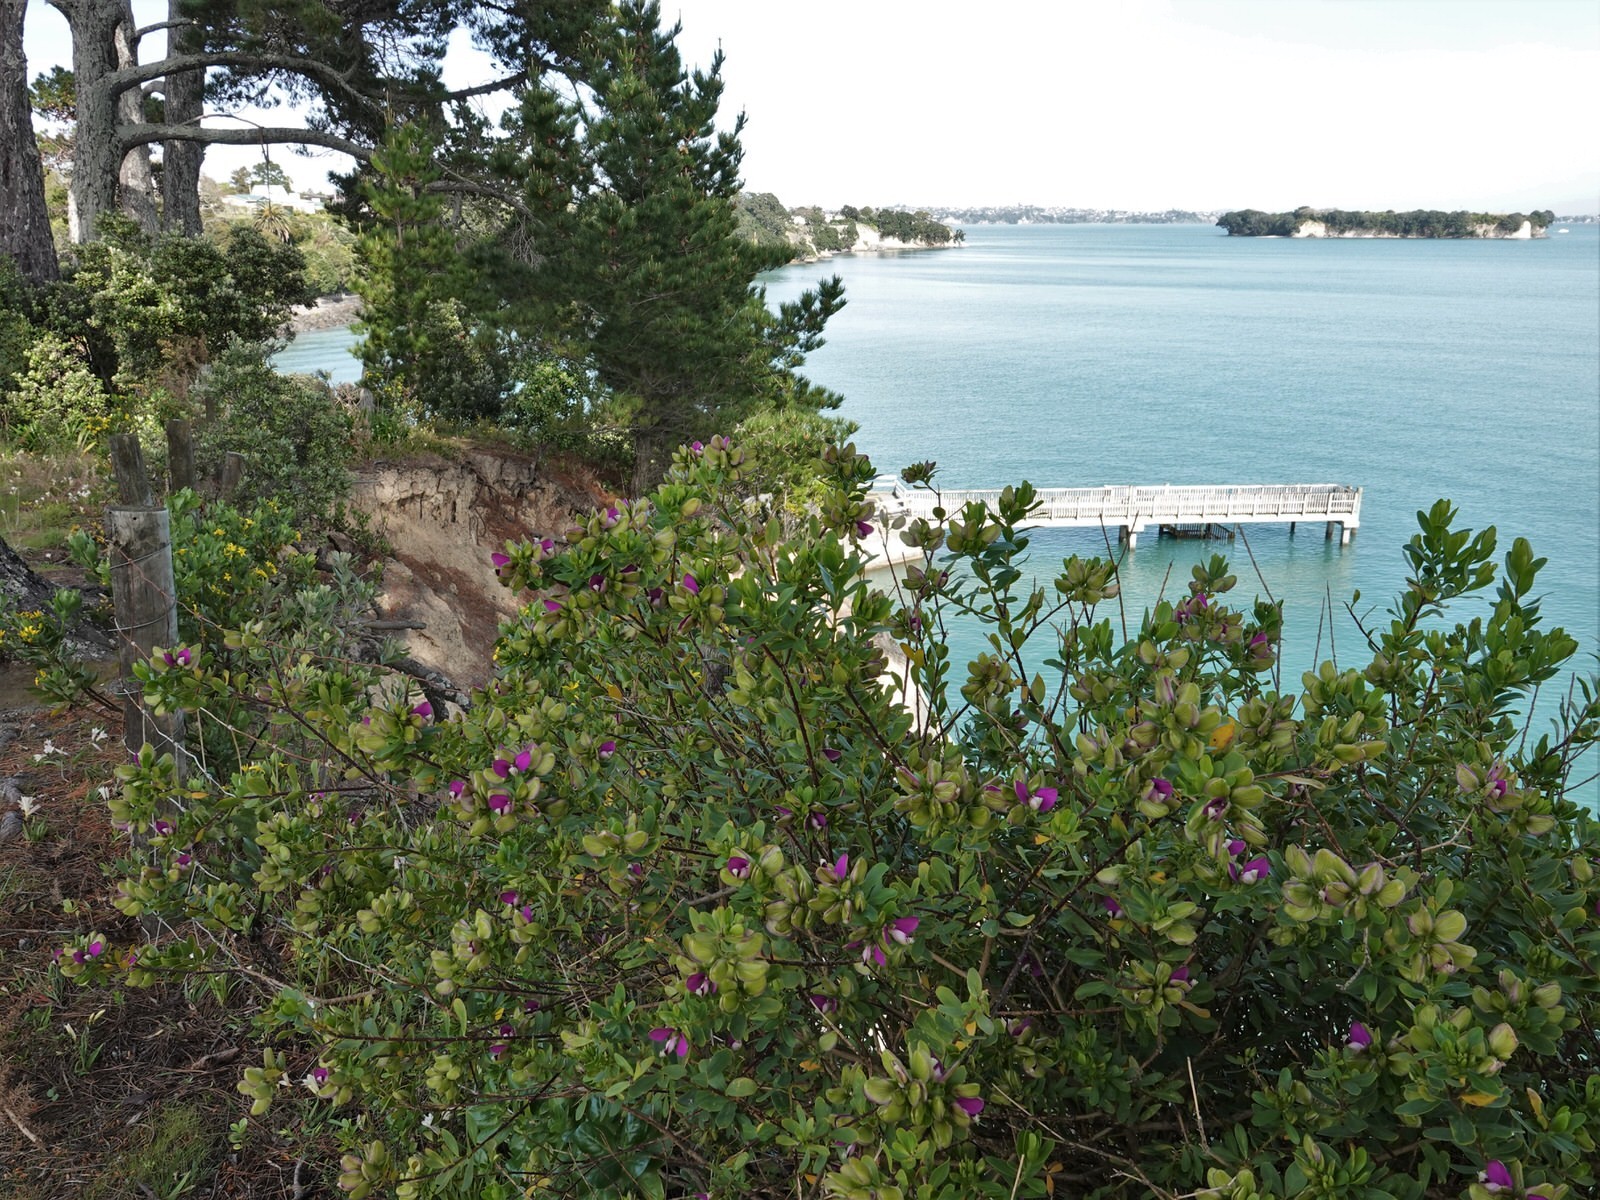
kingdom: Plantae
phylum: Tracheophyta
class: Magnoliopsida
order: Fabales
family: Polygalaceae
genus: Polygala
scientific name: Polygala myrtifolia
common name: Myrtle-leaf milkwort
